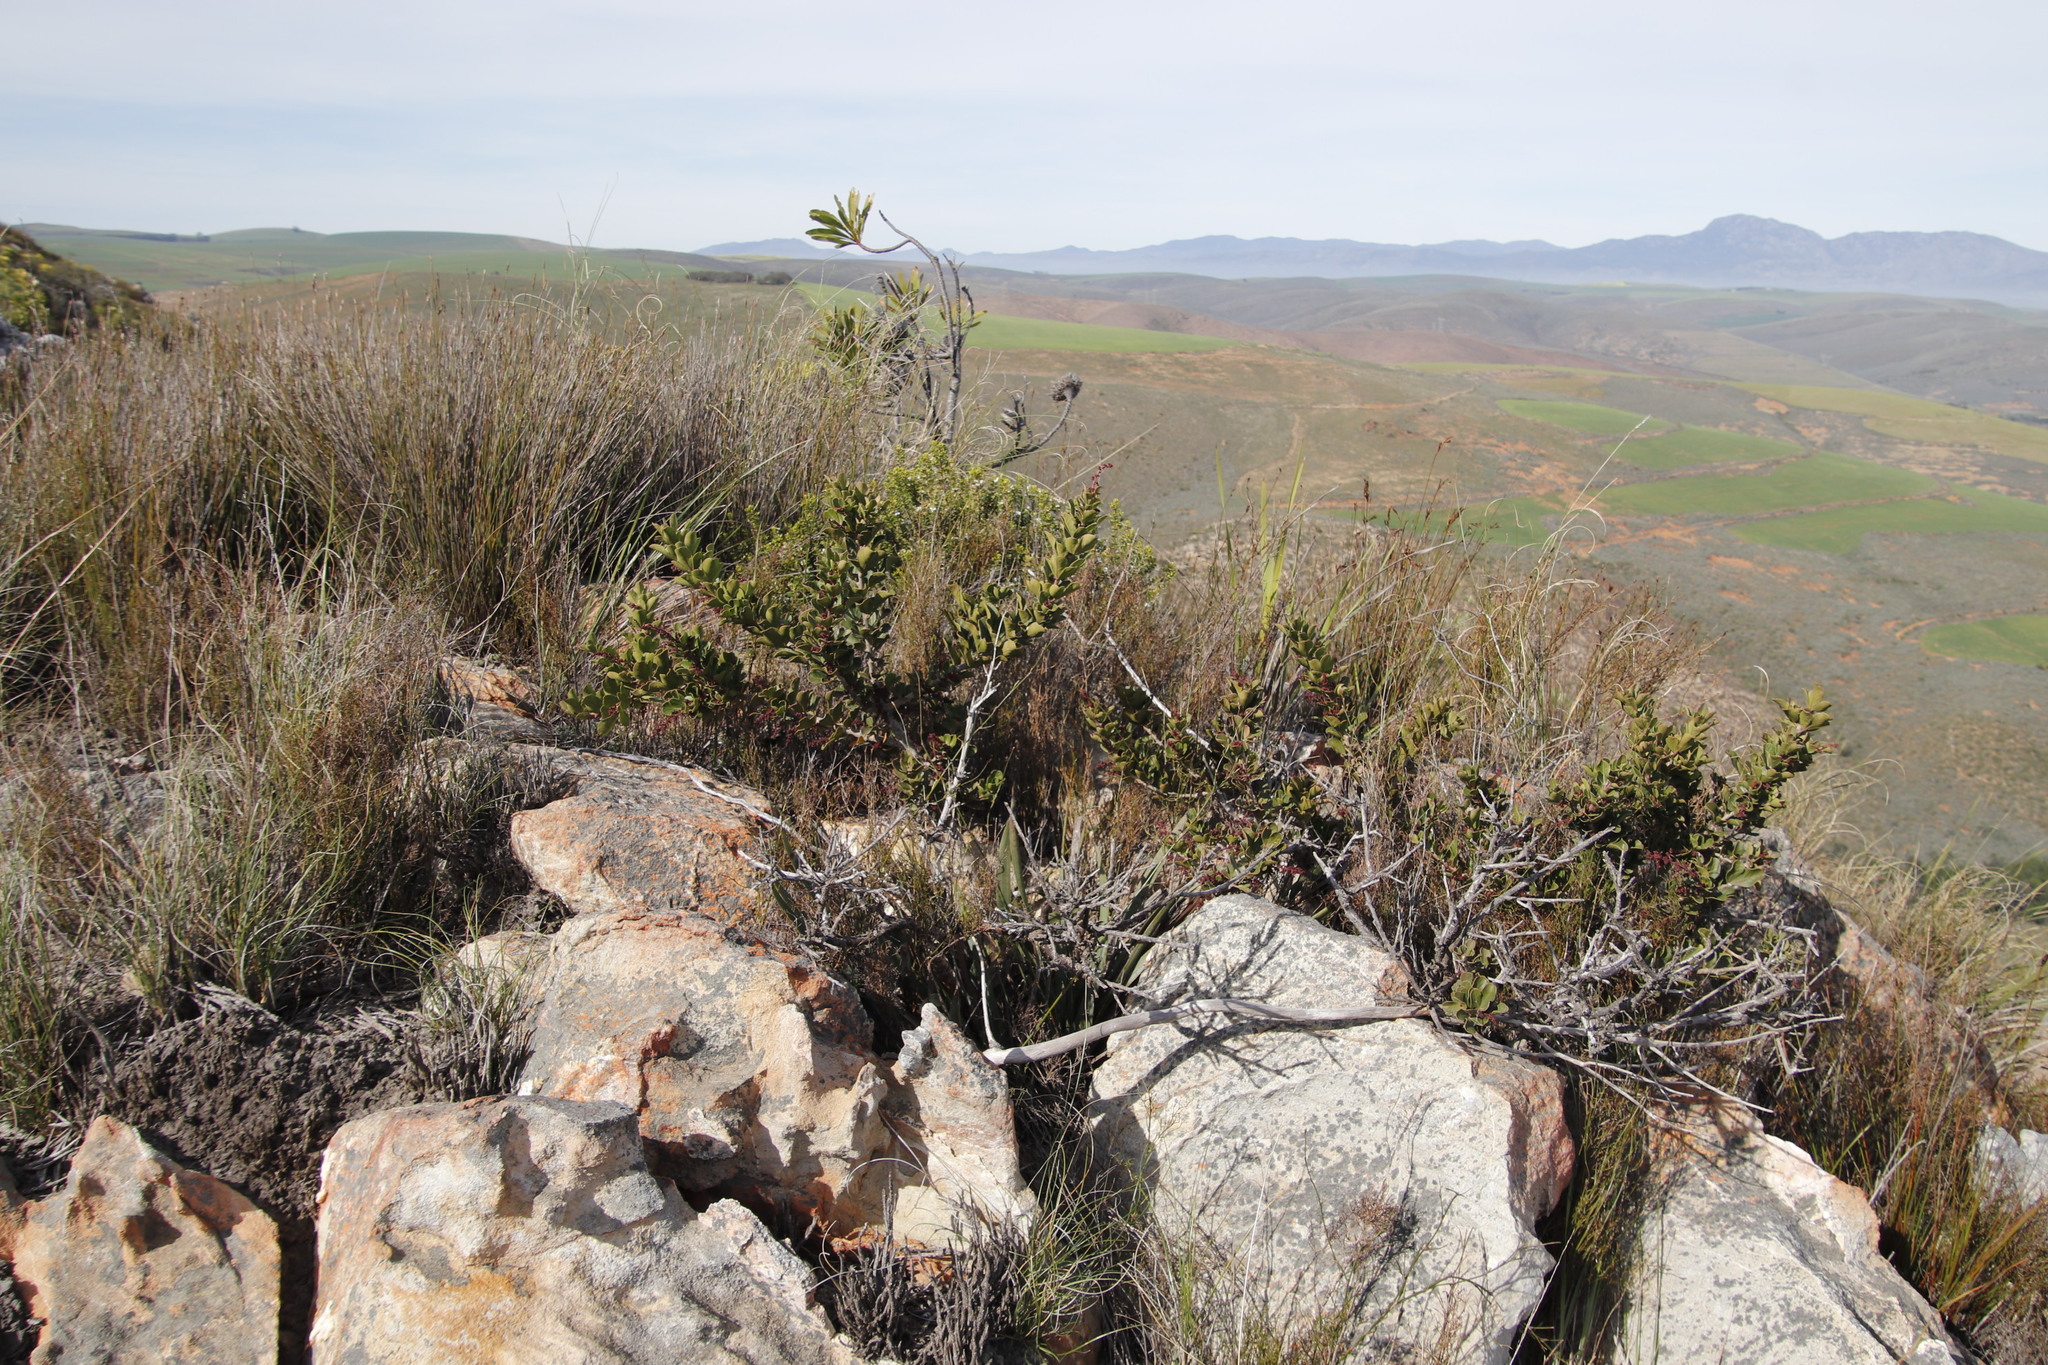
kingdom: Plantae
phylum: Tracheophyta
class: Magnoliopsida
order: Sapindales
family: Anacardiaceae
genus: Searsia
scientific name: Searsia scytophylla
